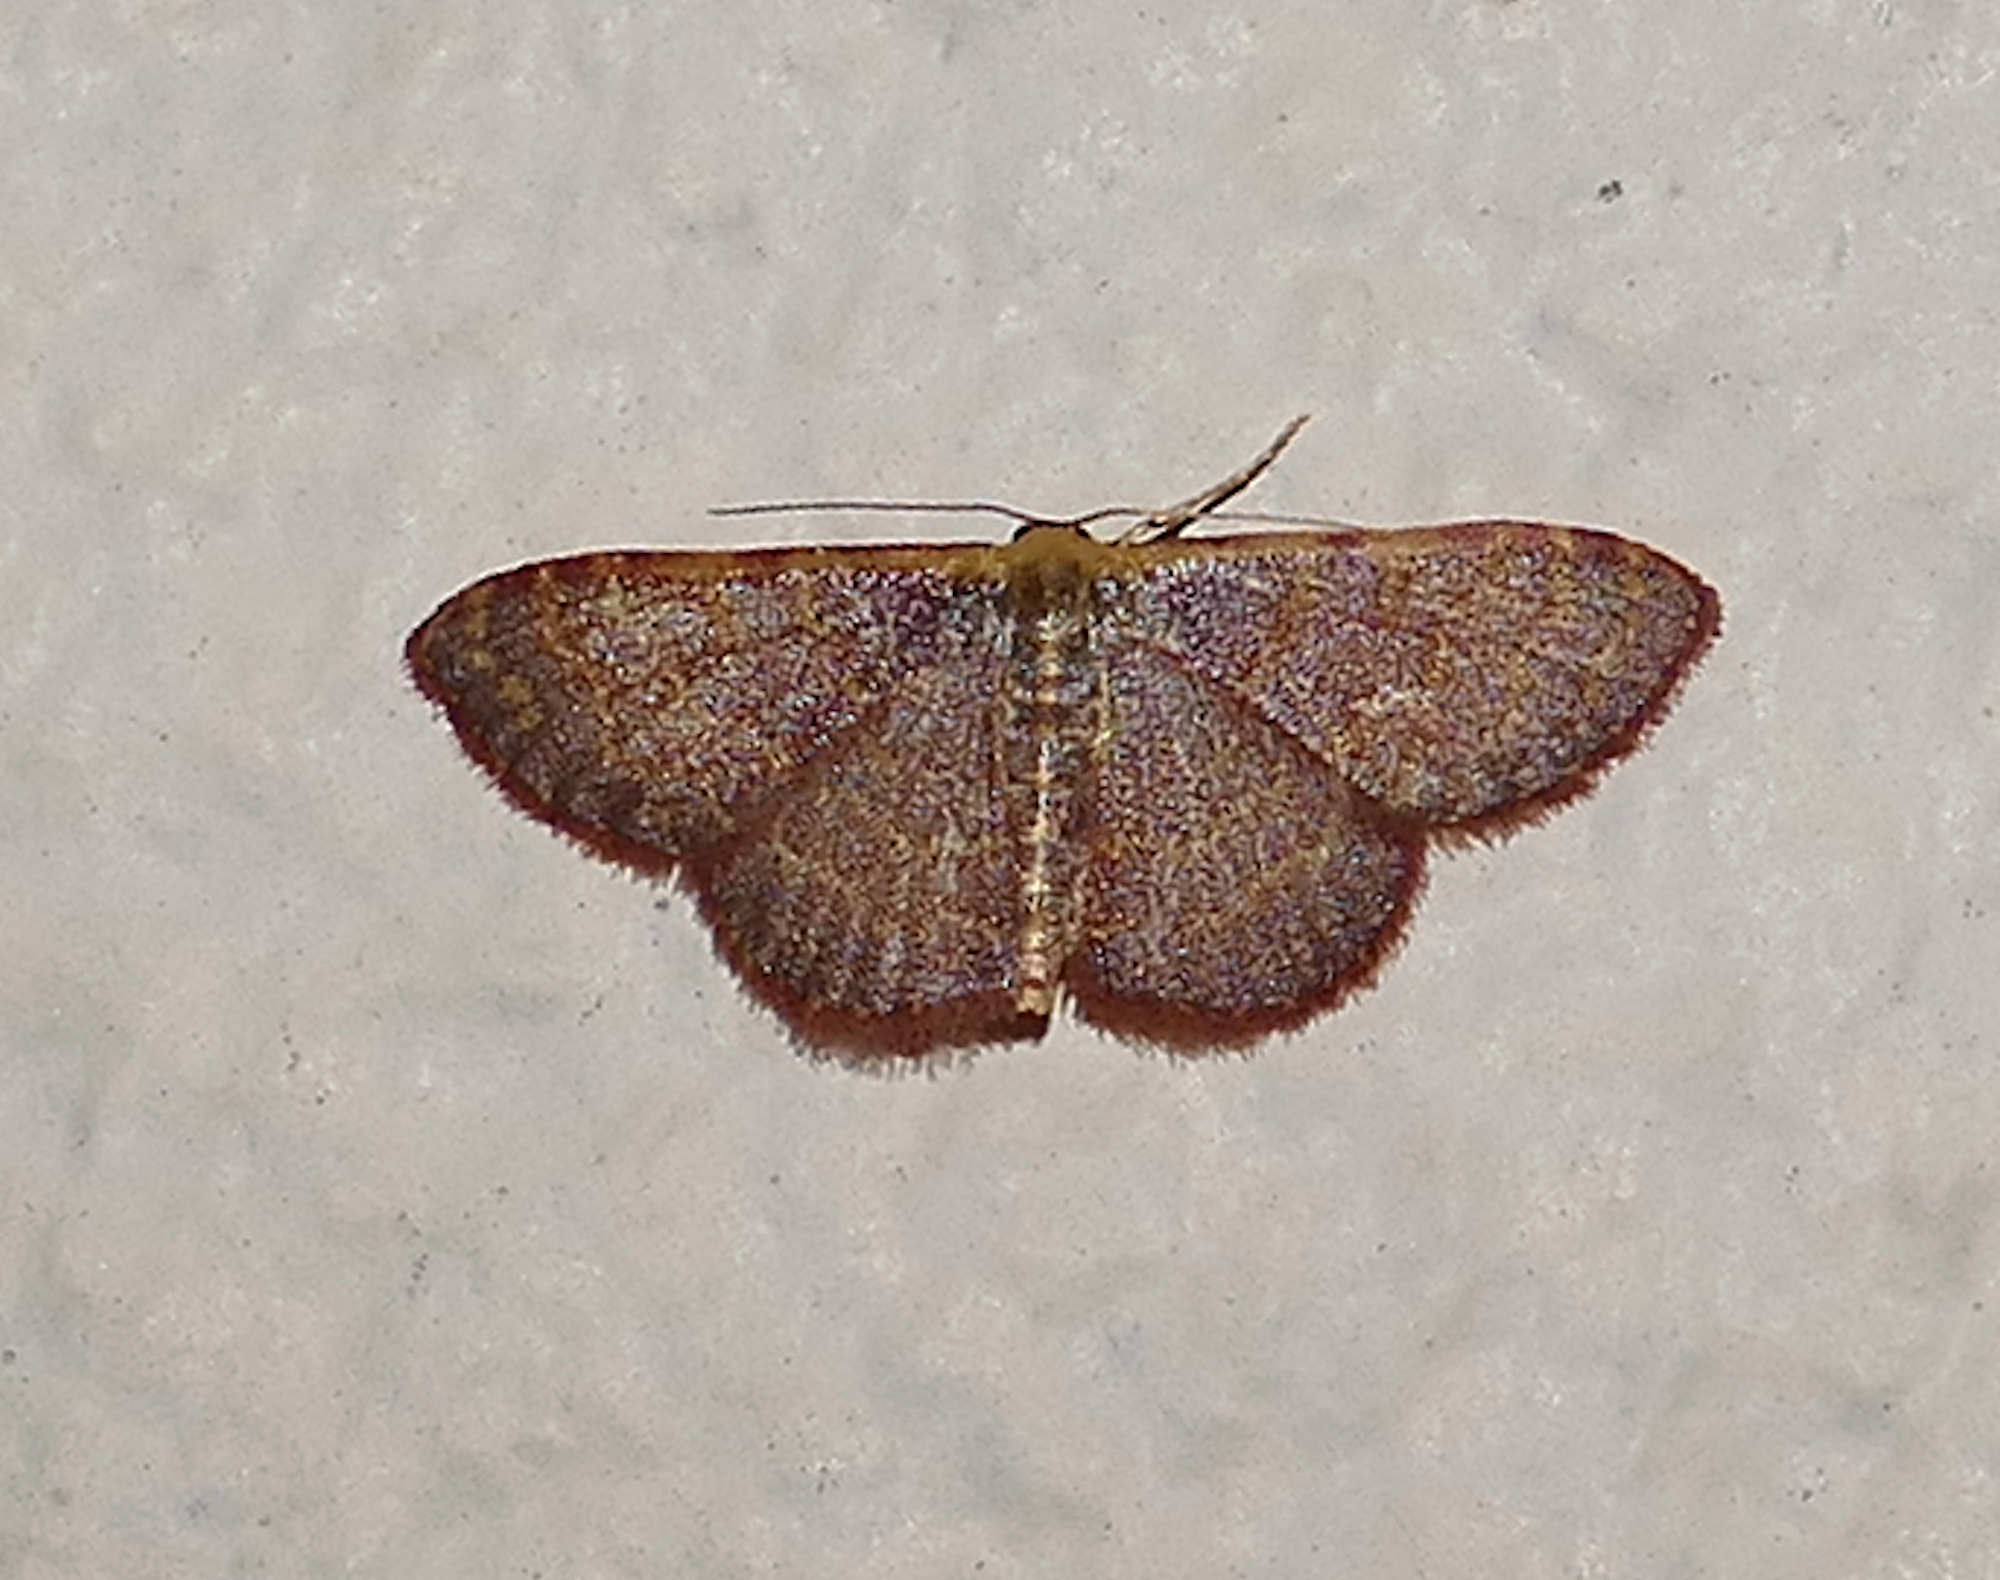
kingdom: Animalia
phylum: Arthropoda
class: Insecta
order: Lepidoptera
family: Geometridae
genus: Leptostales
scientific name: Leptostales pannaria
